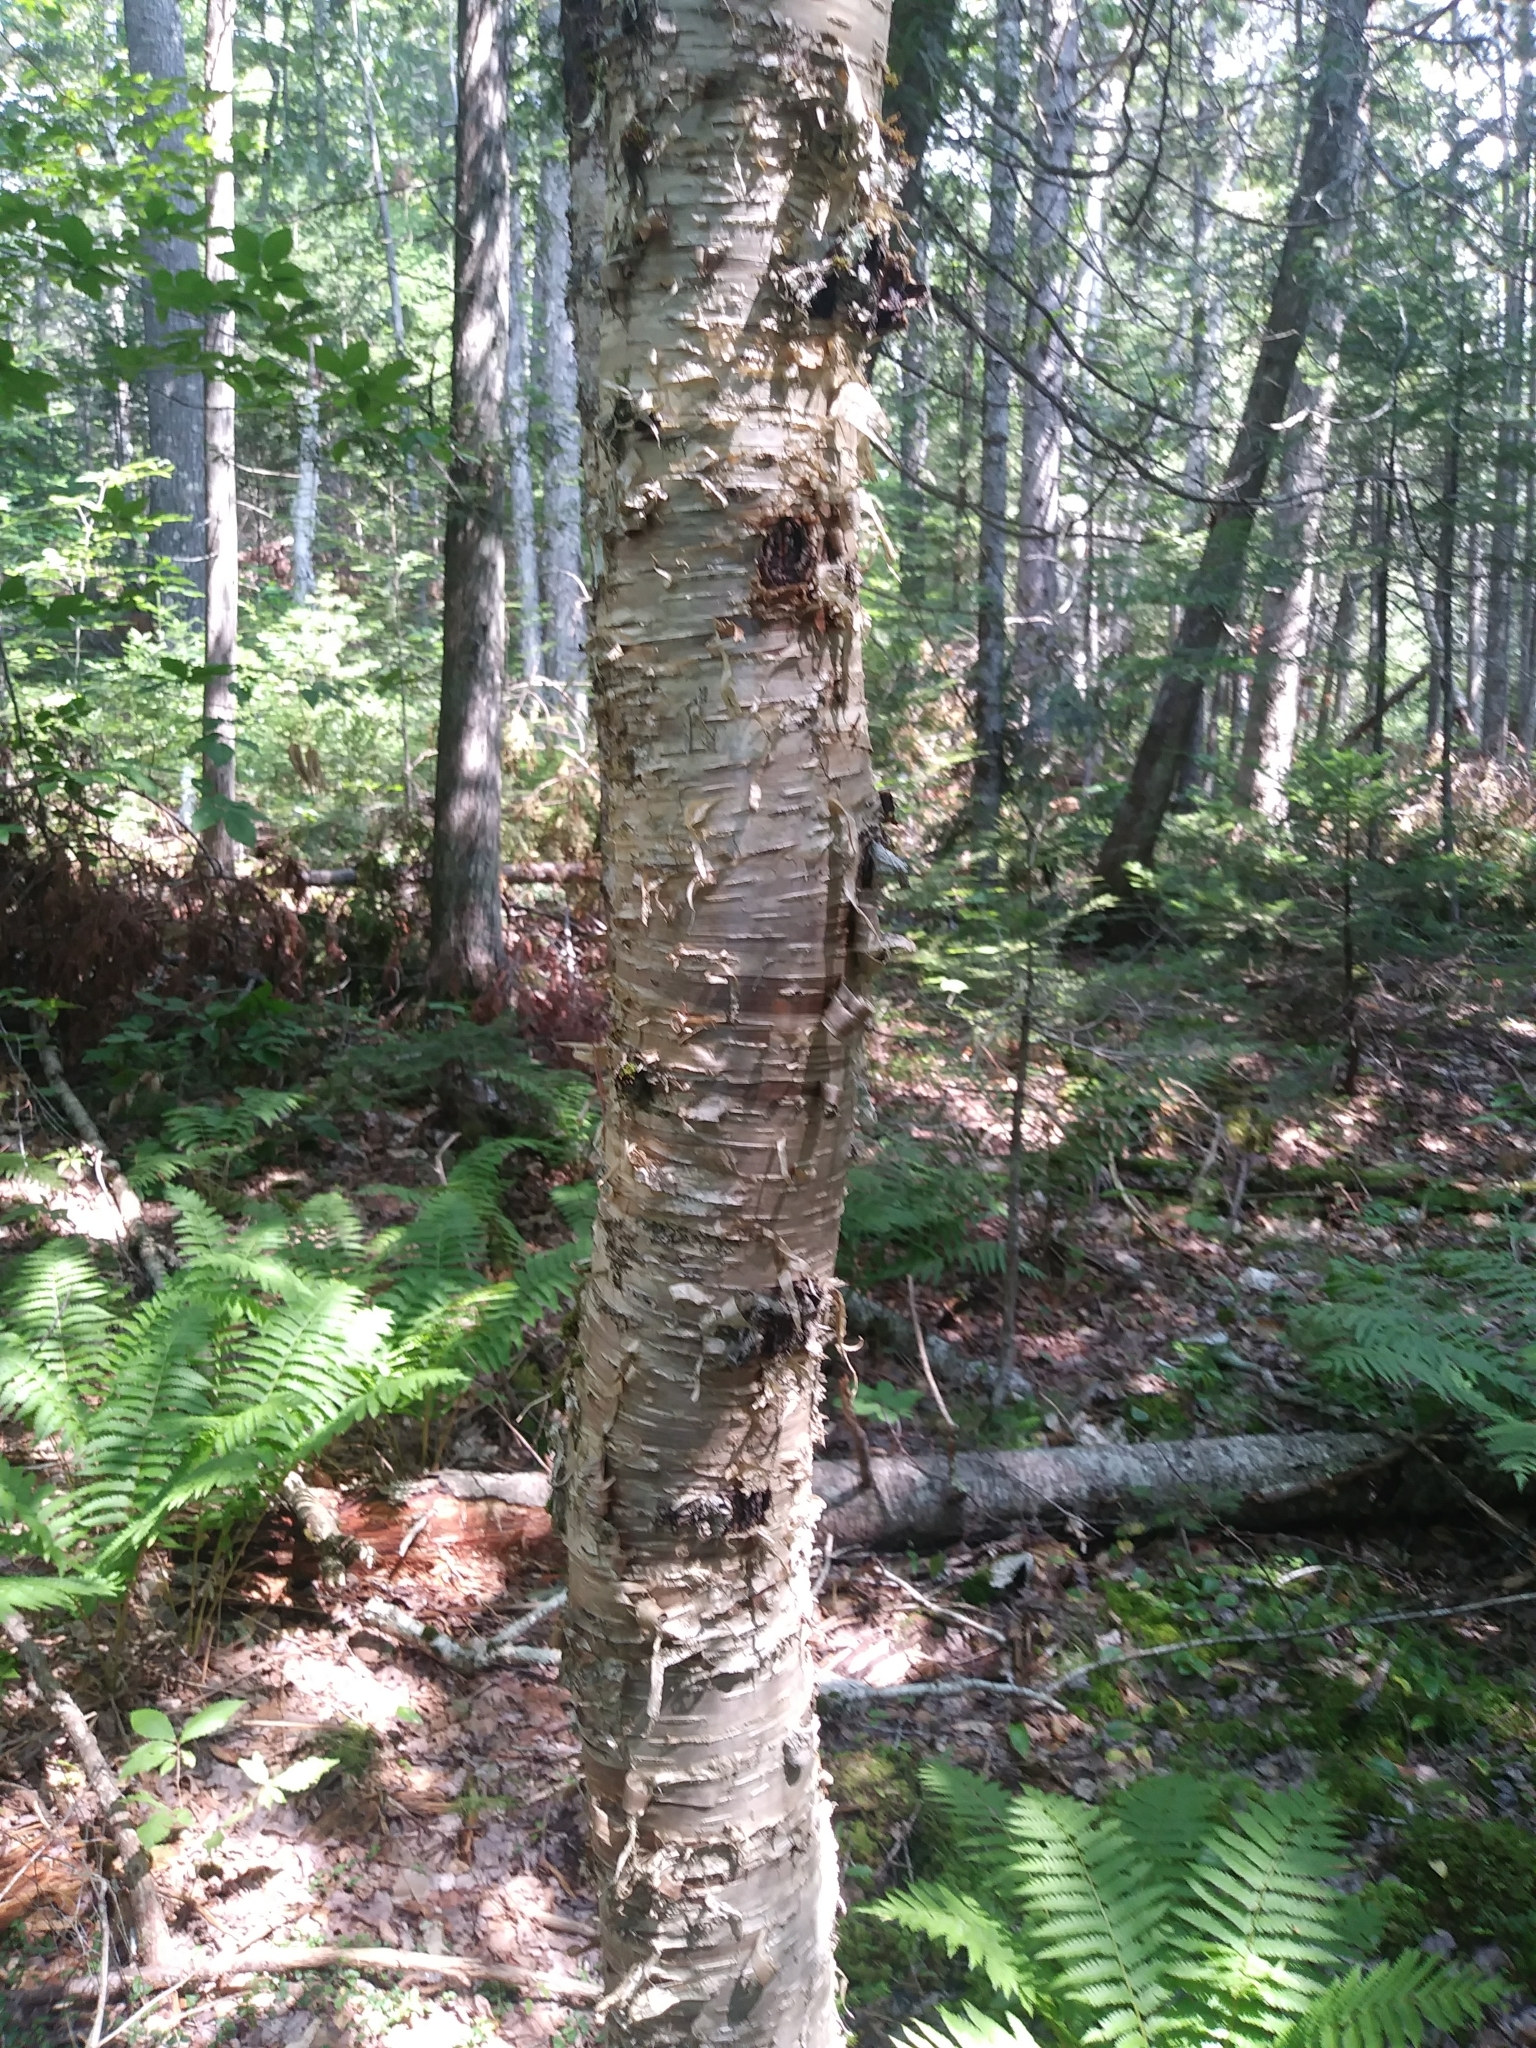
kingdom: Plantae
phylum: Tracheophyta
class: Magnoliopsida
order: Fagales
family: Betulaceae
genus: Betula
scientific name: Betula alleghaniensis
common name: Yellow birch
